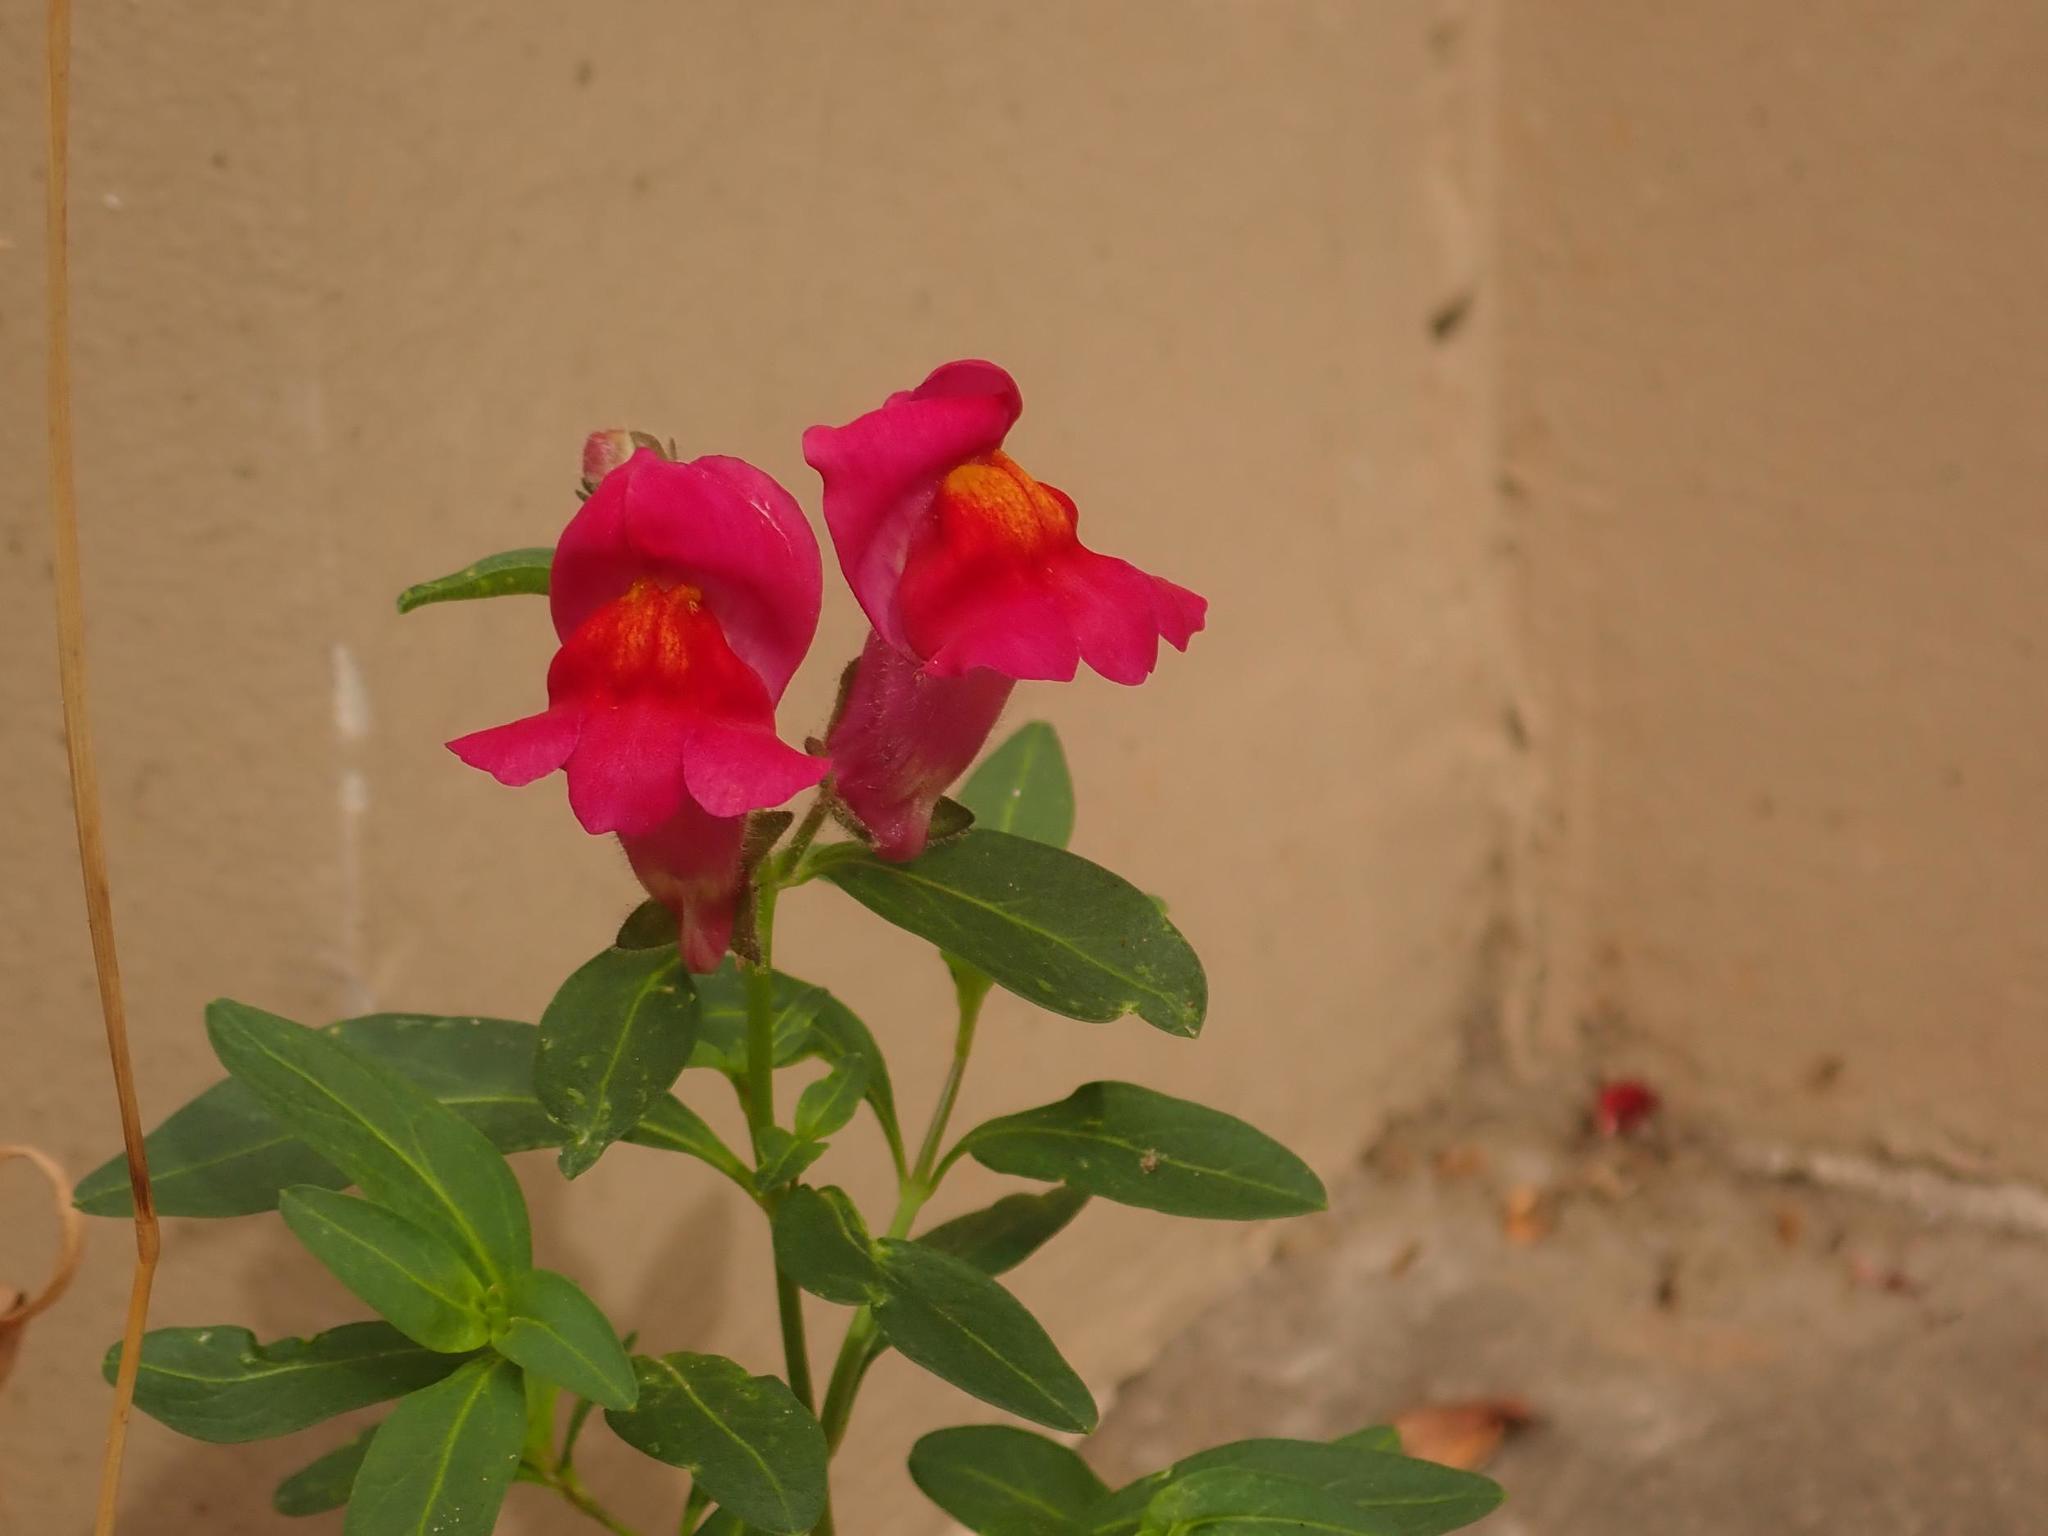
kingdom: Plantae
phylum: Tracheophyta
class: Magnoliopsida
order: Lamiales
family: Plantaginaceae
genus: Antirrhinum
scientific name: Antirrhinum majus
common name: Snapdragon
